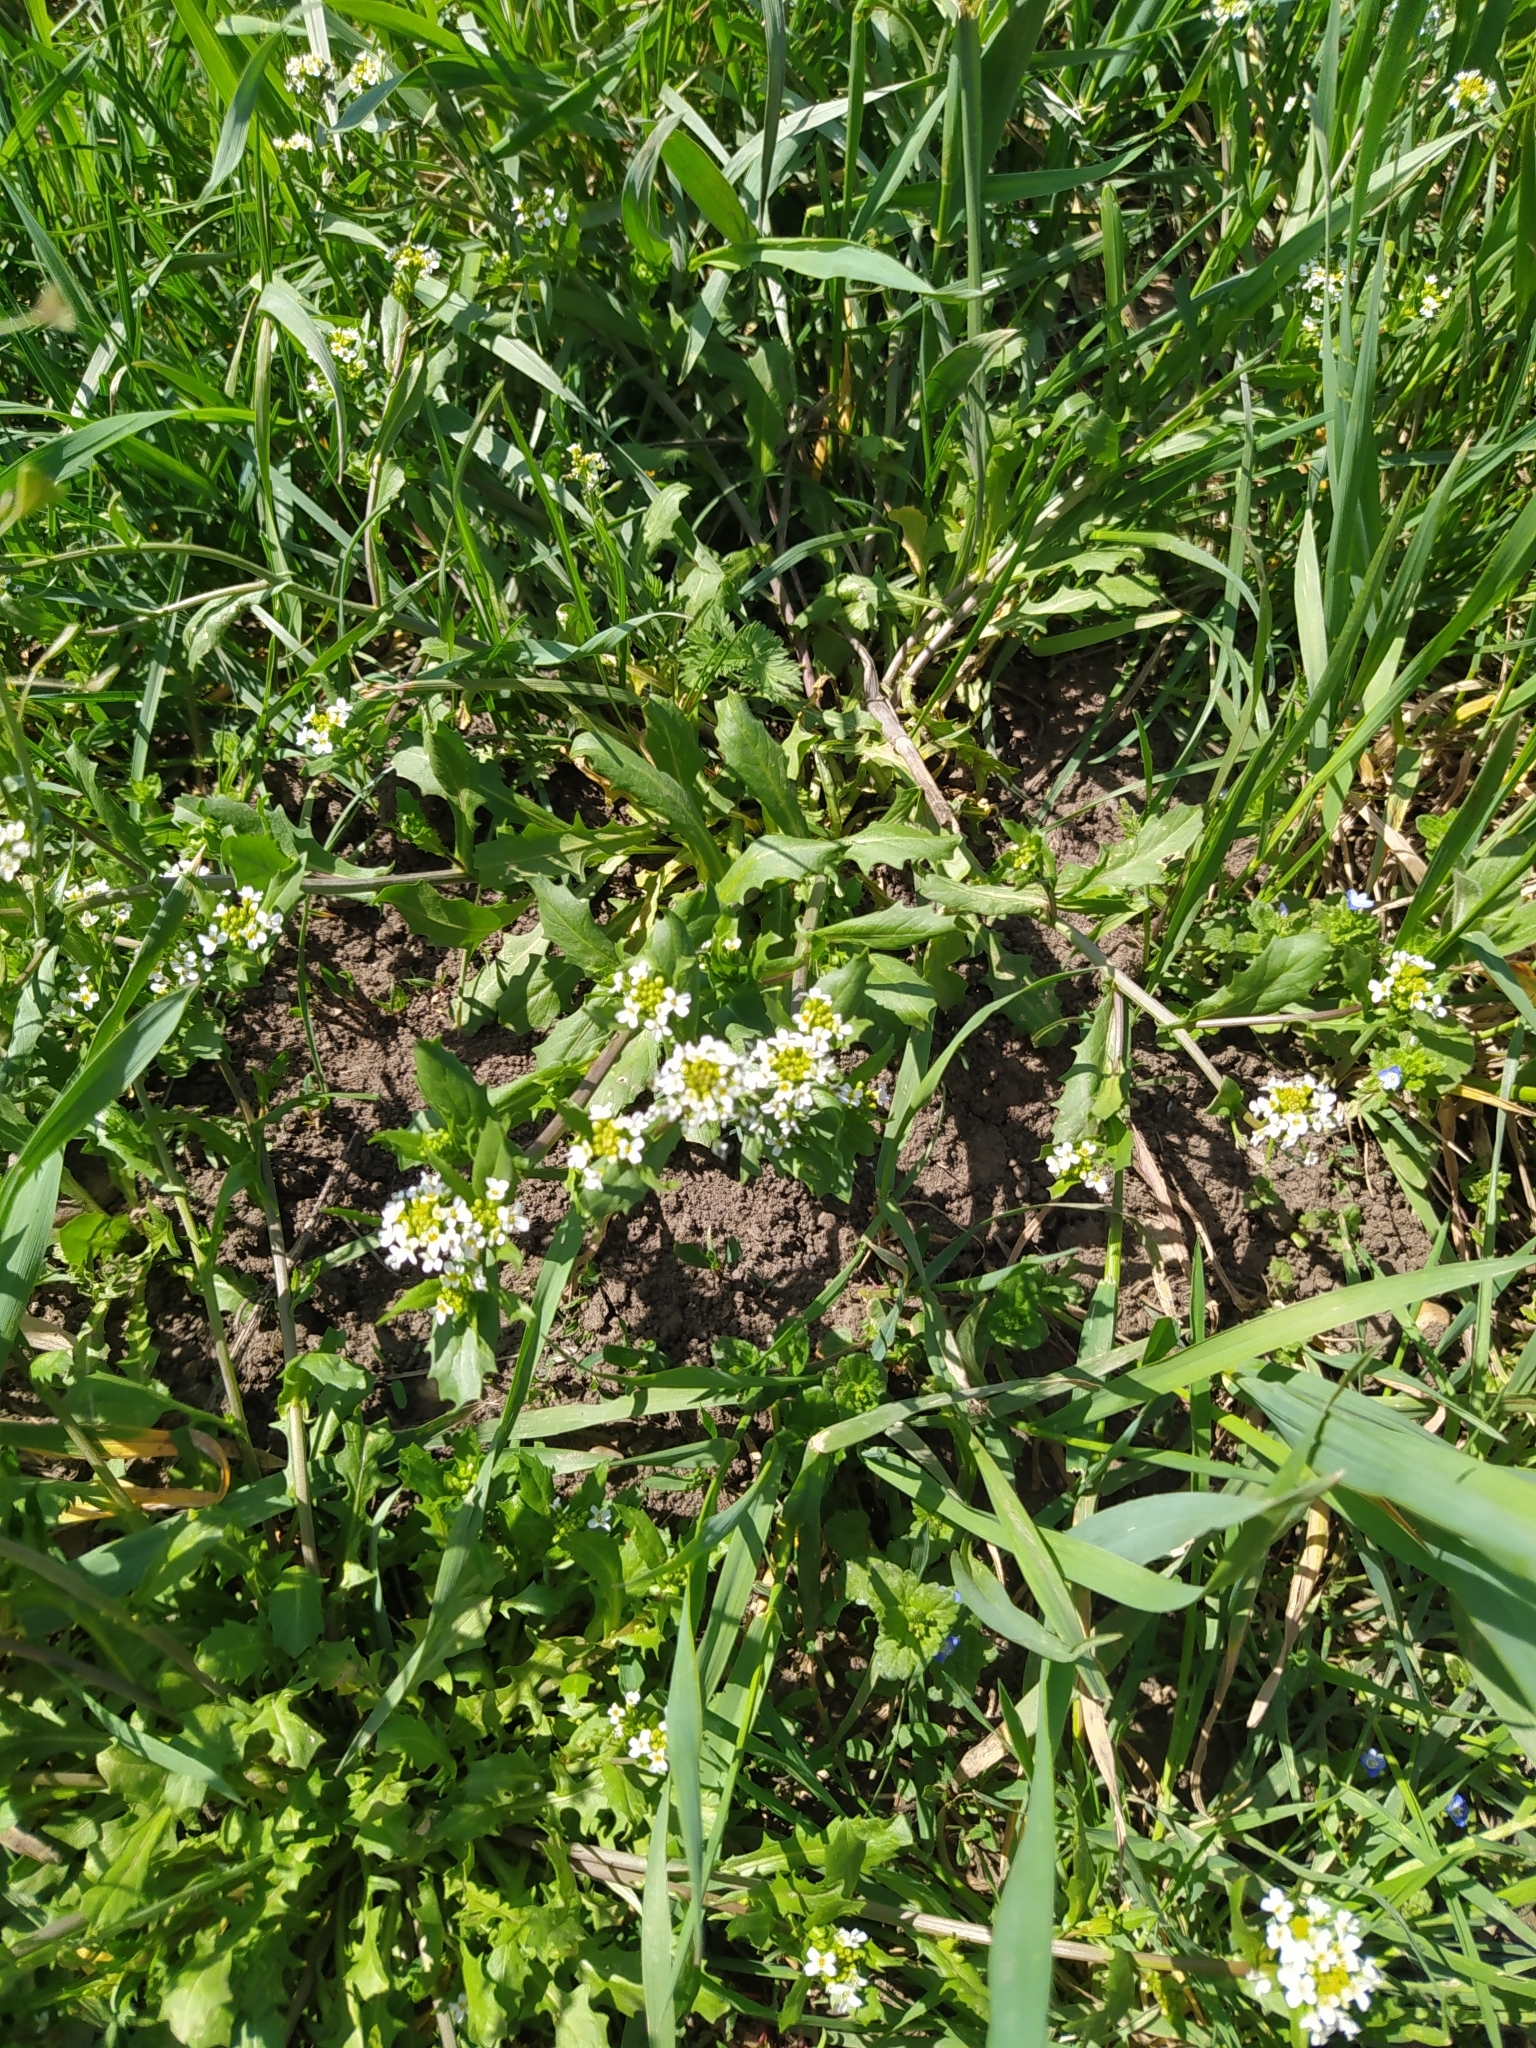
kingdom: Plantae
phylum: Tracheophyta
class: Magnoliopsida
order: Brassicales
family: Brassicaceae
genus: Calepina
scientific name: Calepina irregularis
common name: White ballmustard
